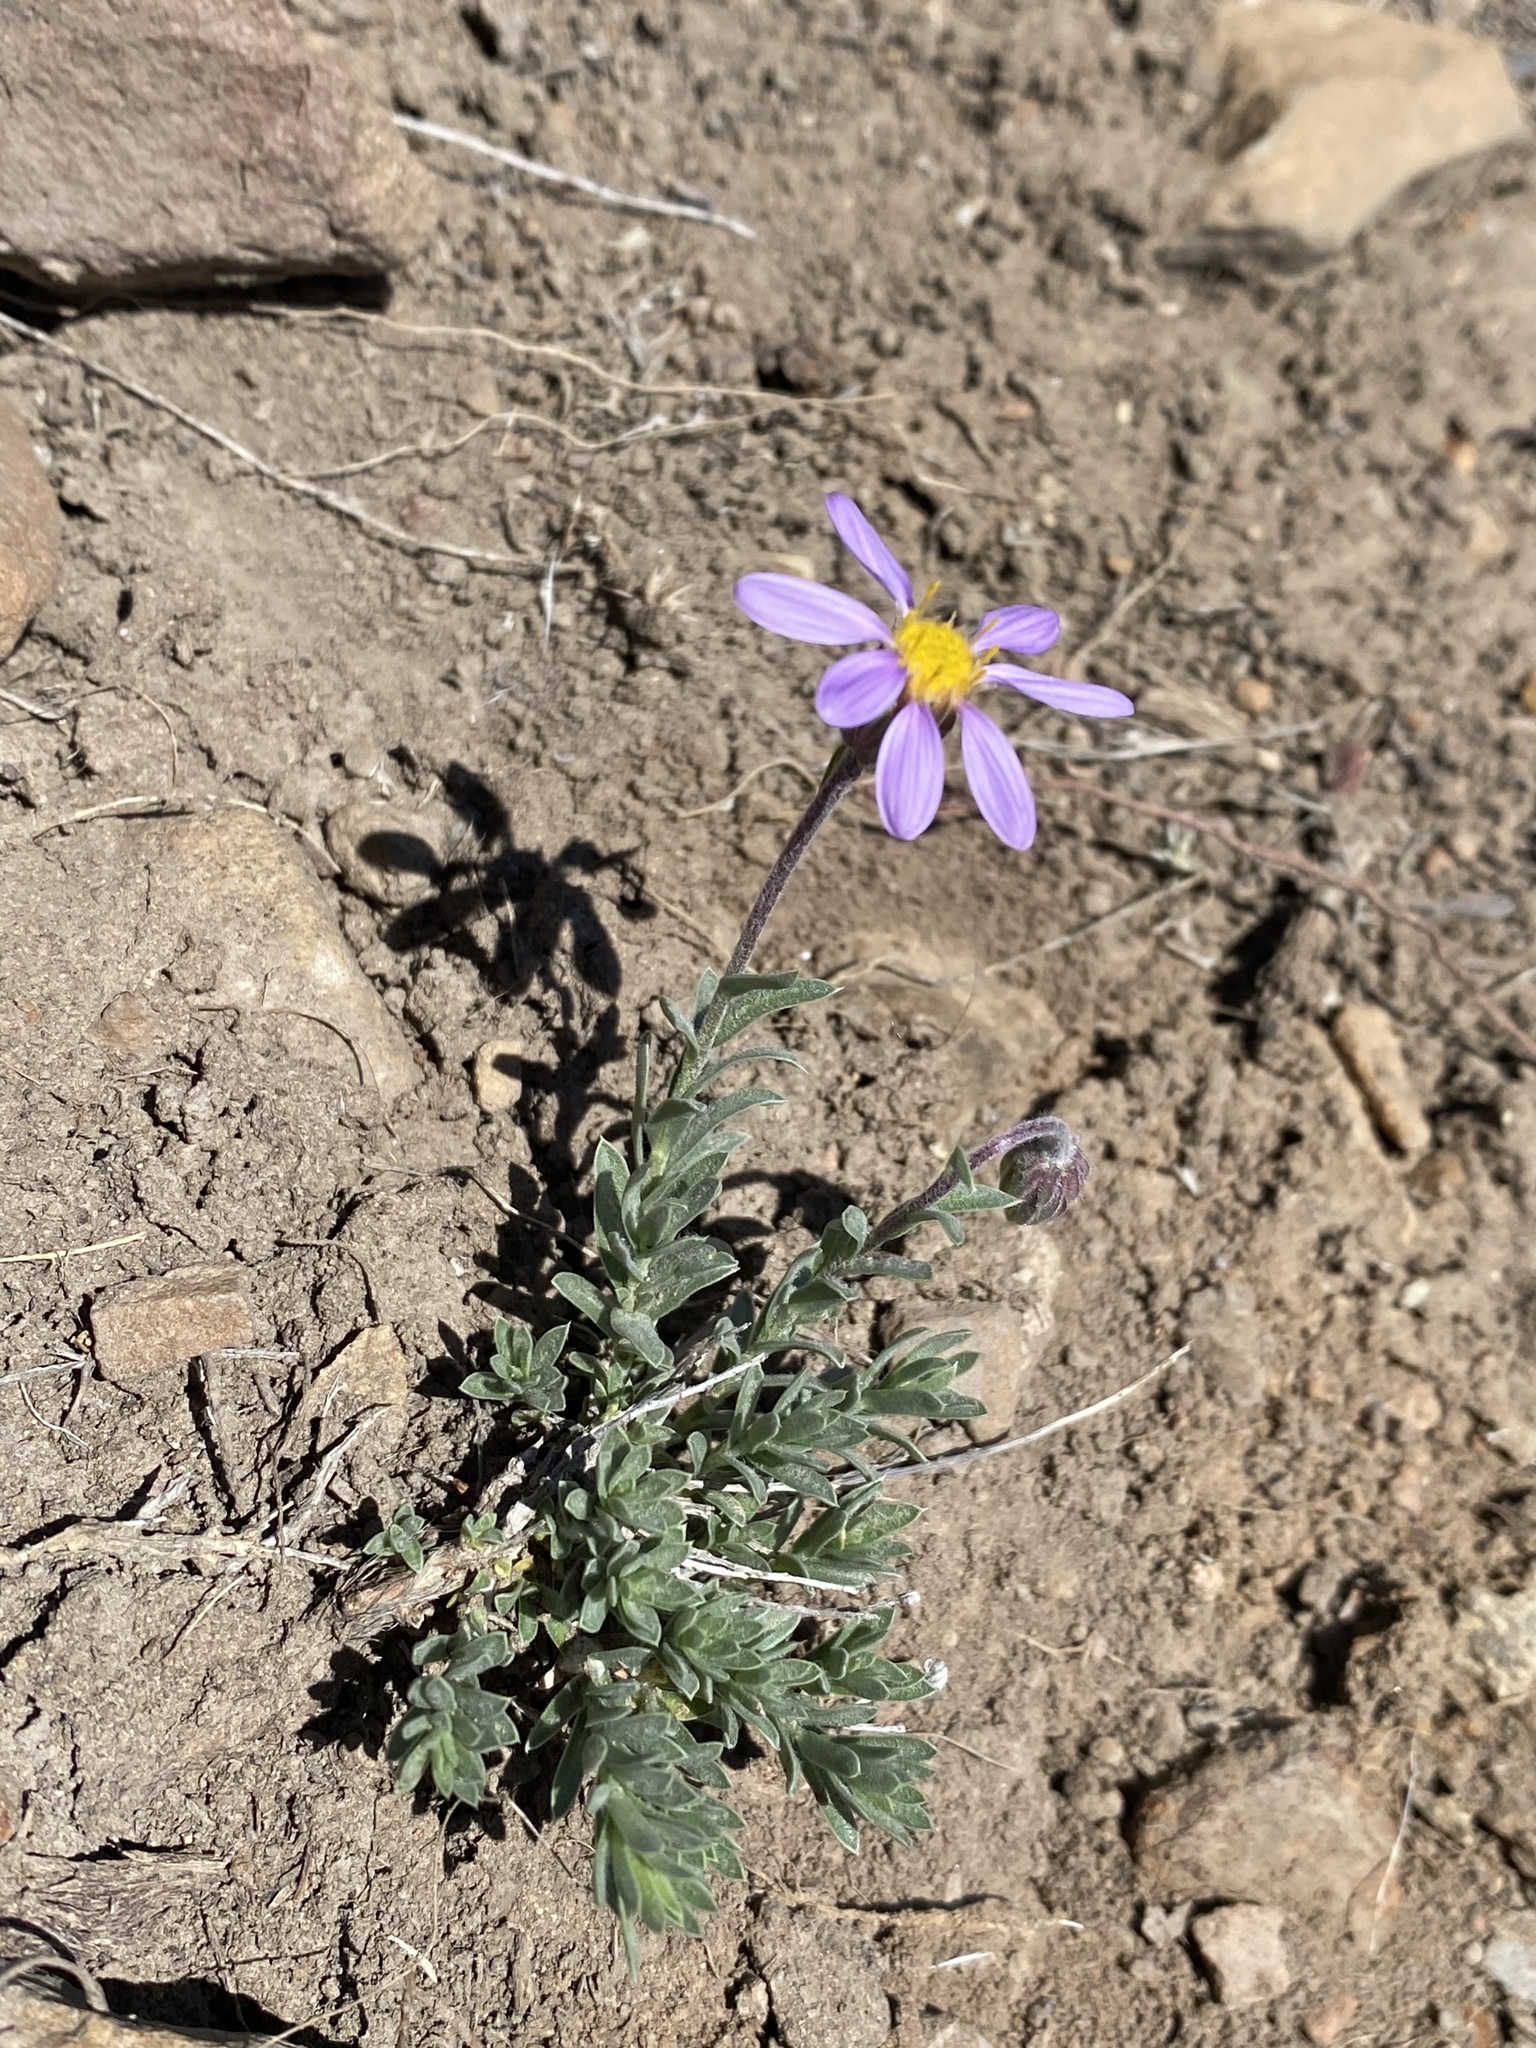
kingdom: Plantae
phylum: Tracheophyta
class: Magnoliopsida
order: Asterales
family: Asteraceae
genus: Ionactis
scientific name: Ionactis alpina
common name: Crag aster
